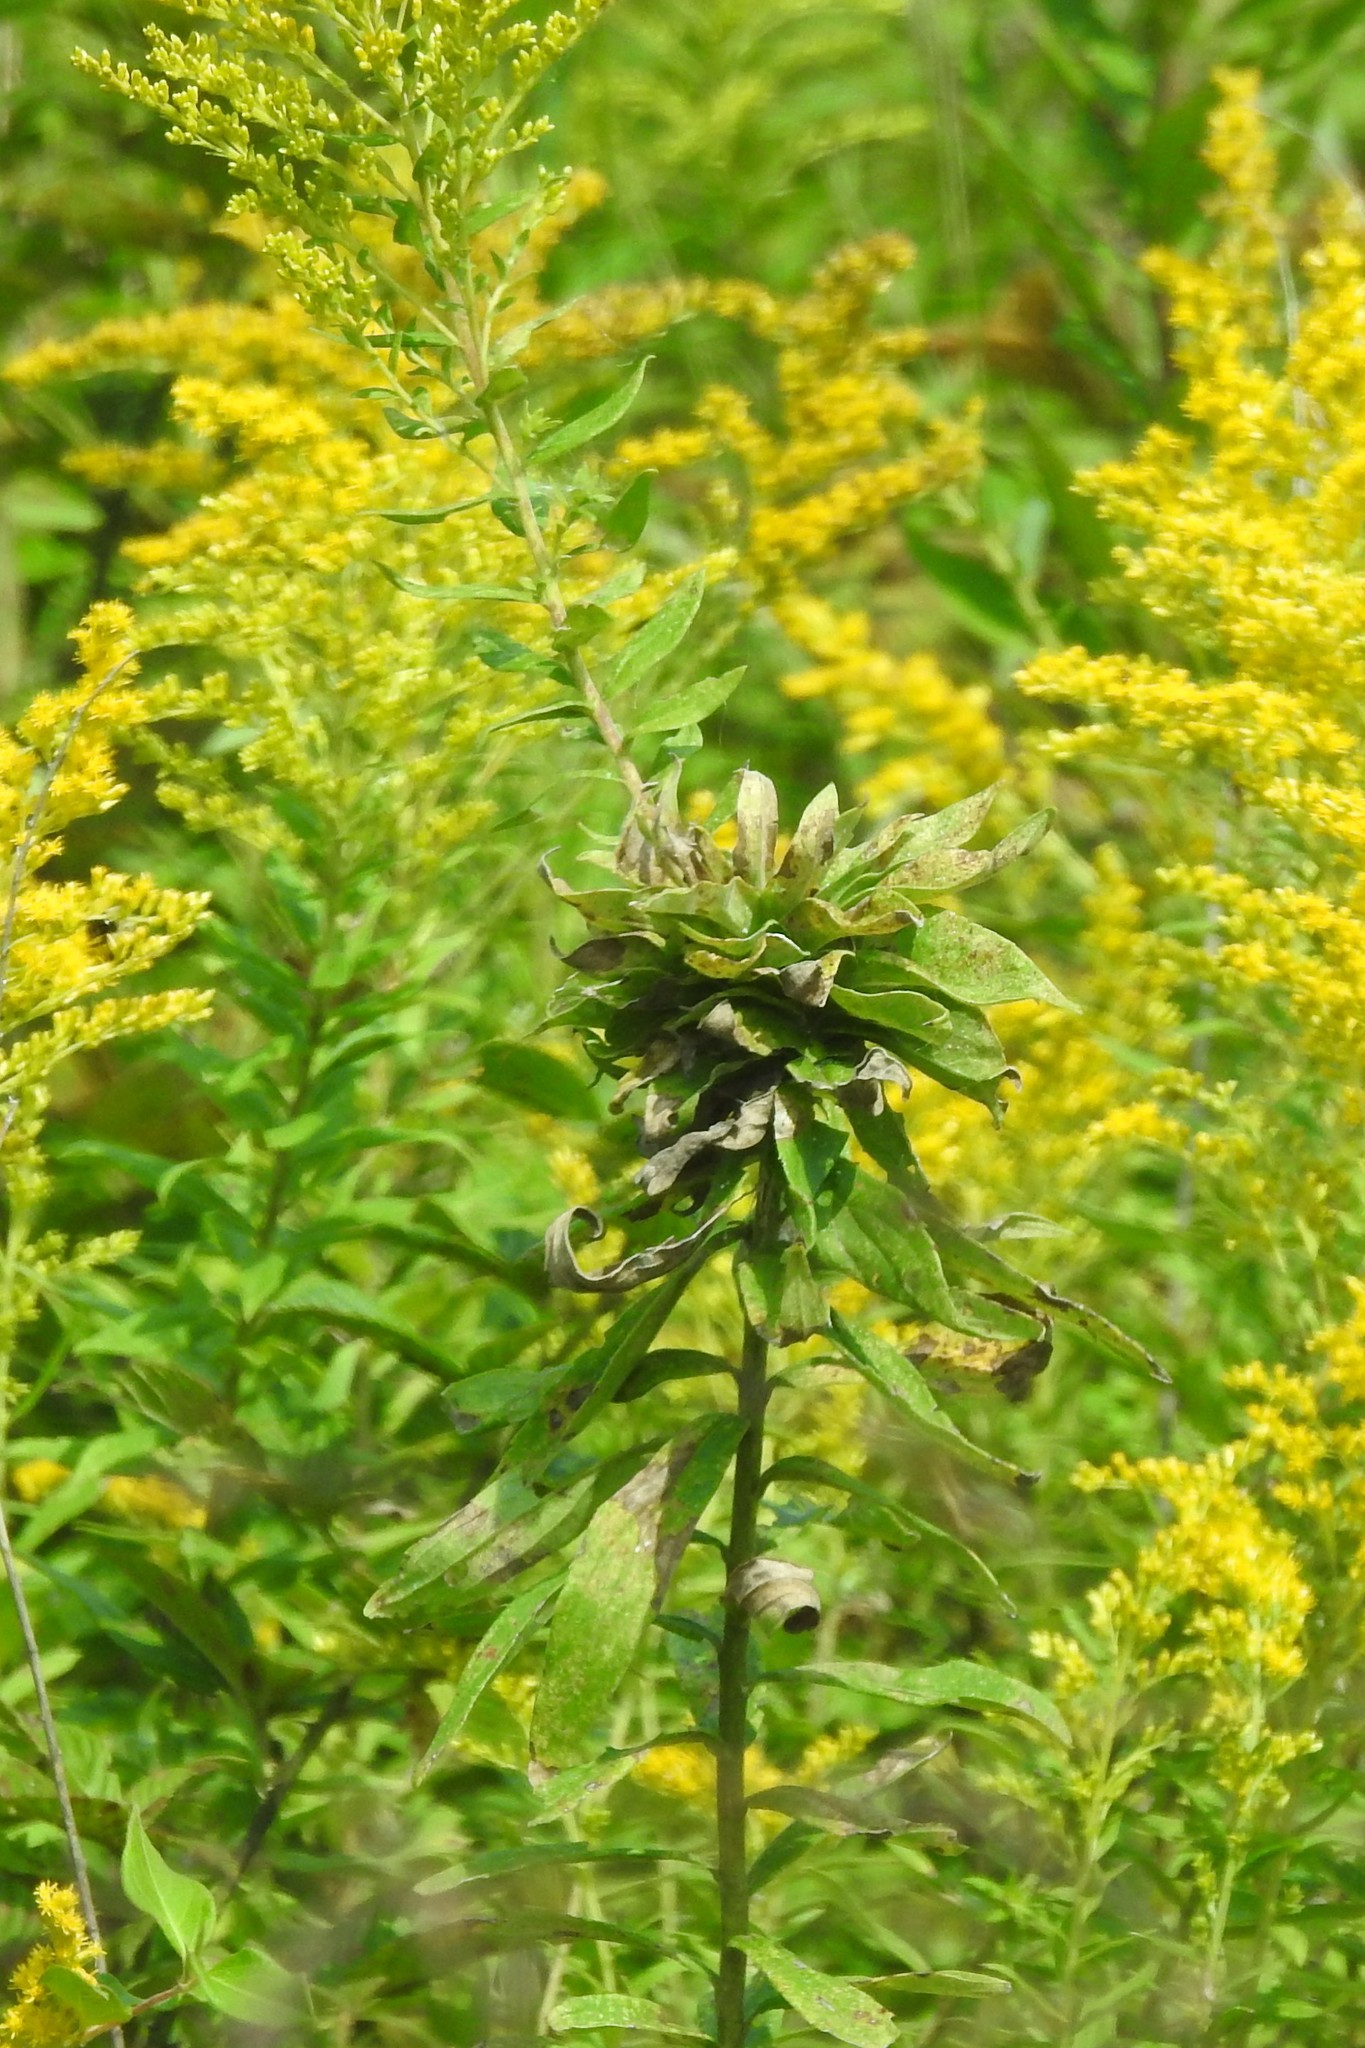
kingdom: Animalia
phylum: Arthropoda
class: Insecta
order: Diptera
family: Cecidomyiidae
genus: Rhopalomyia
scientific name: Rhopalomyia solidaginis
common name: Goldenrod bunch gall midge
